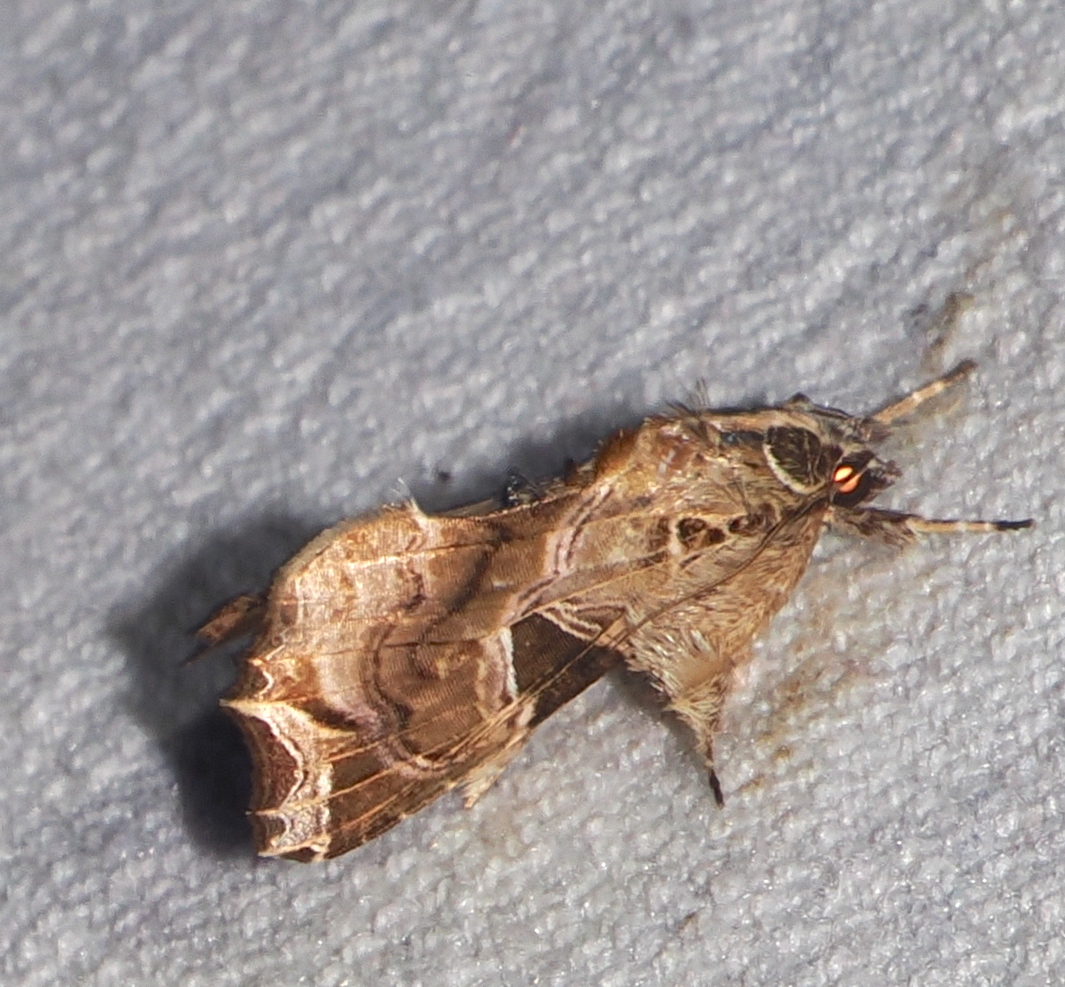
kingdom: Animalia
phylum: Arthropoda
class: Insecta
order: Lepidoptera
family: Noctuidae
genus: Callopistria
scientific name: Callopistria floridensis
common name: Florida fern moth
